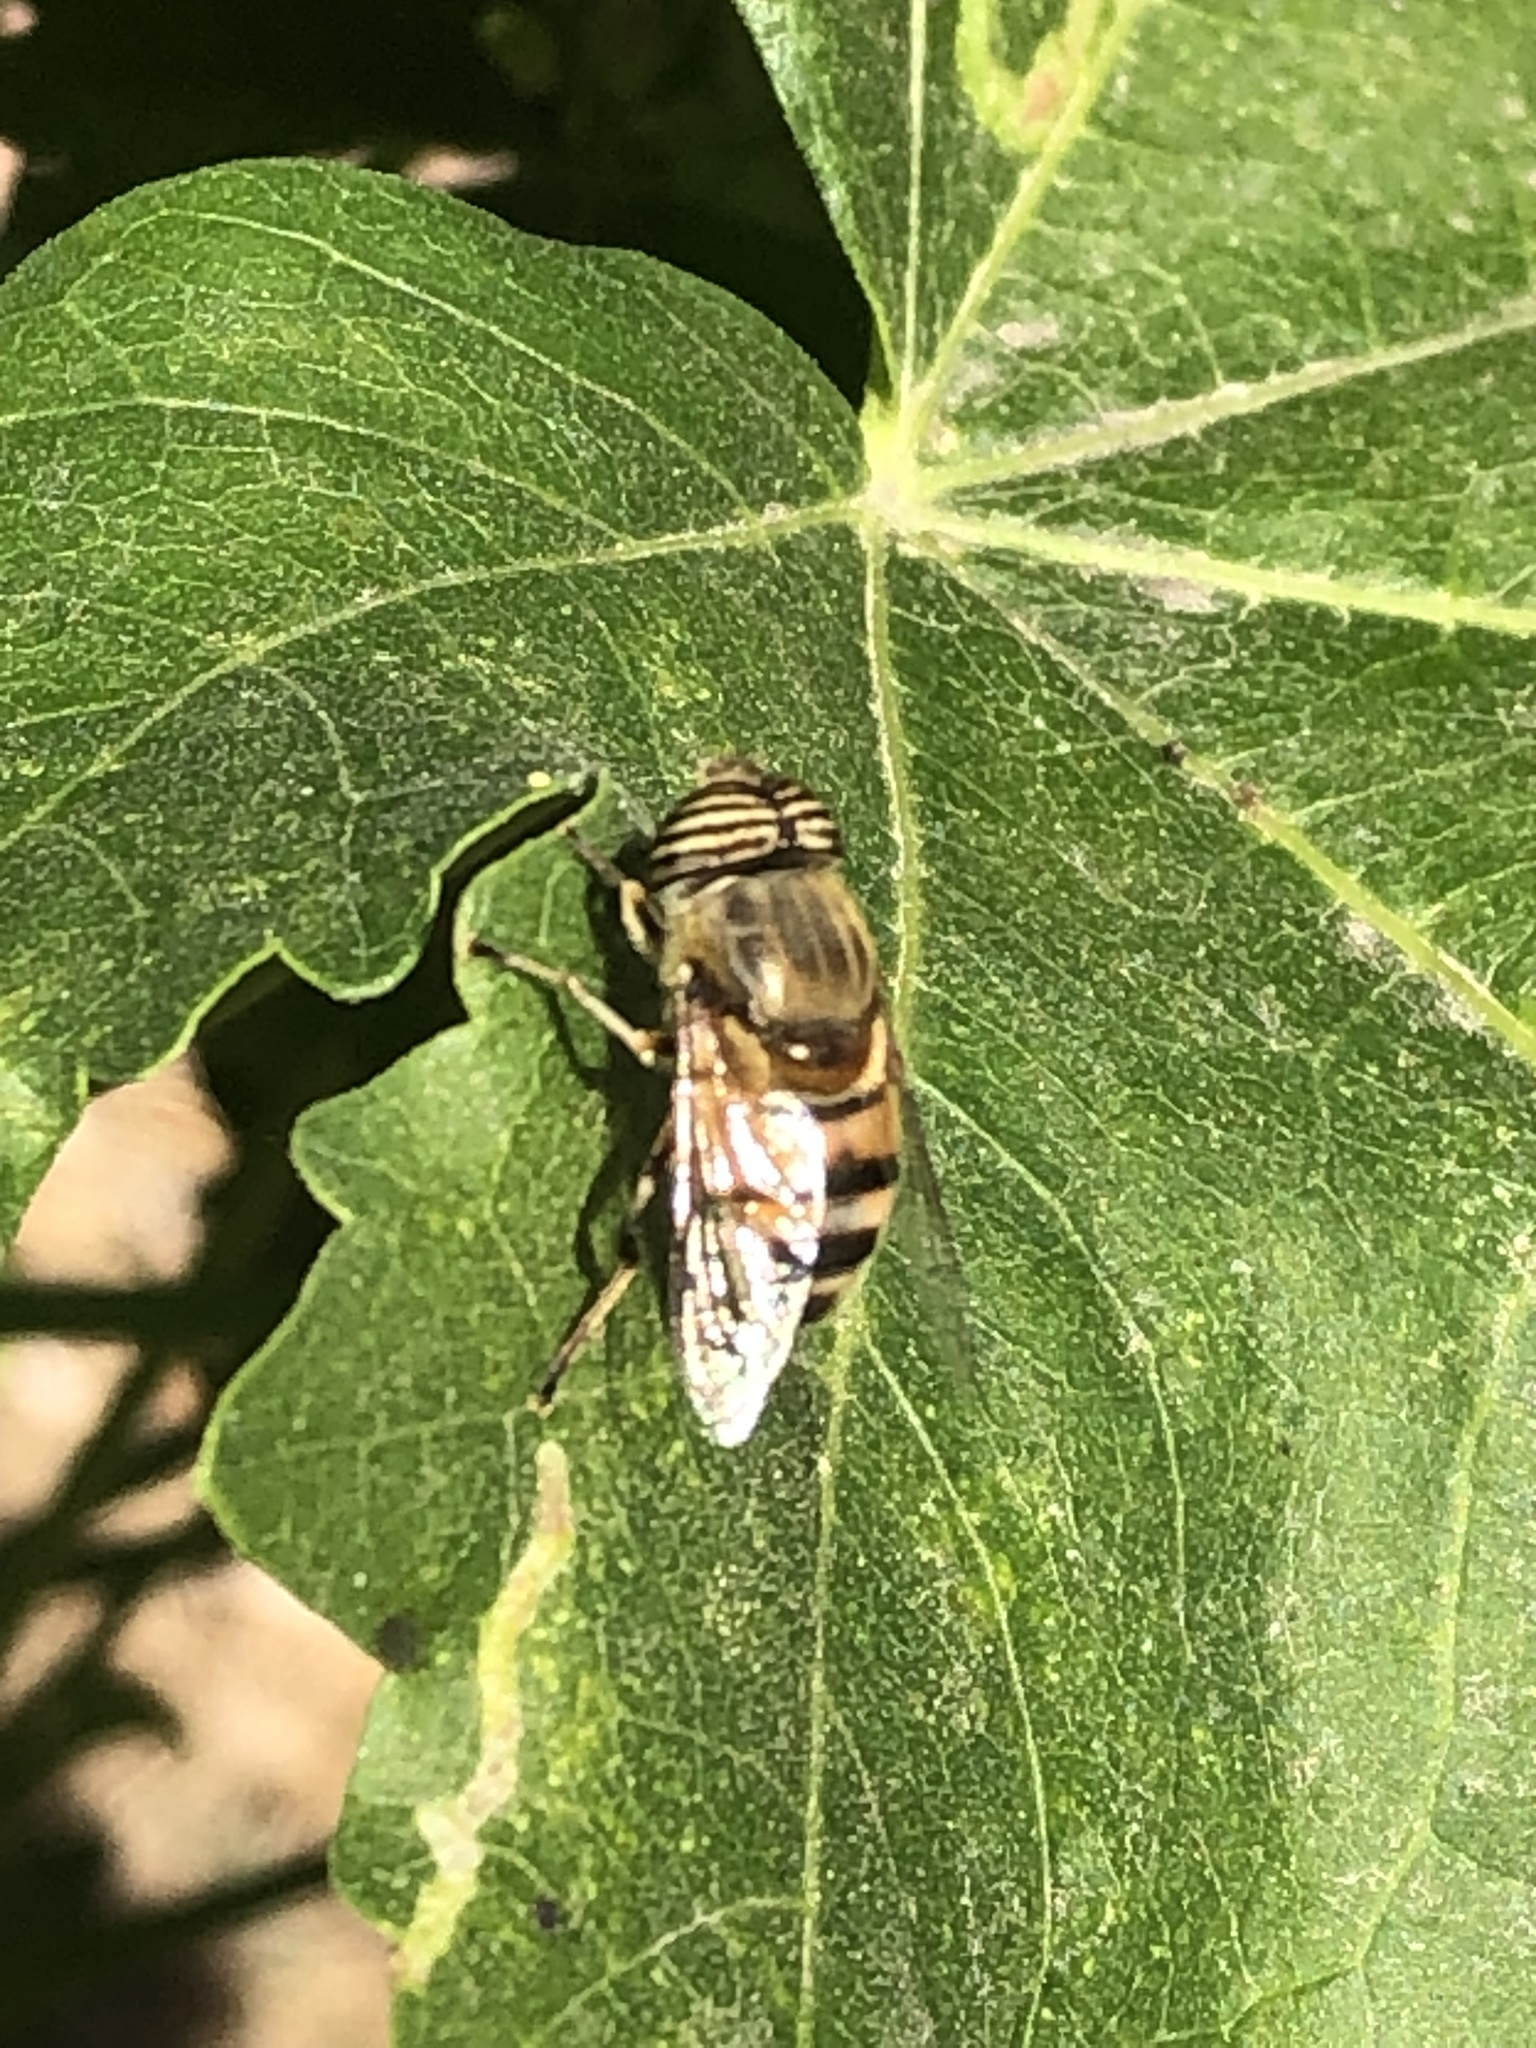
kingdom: Animalia
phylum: Arthropoda
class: Insecta
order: Diptera
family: Syrphidae
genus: Eristalinus
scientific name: Eristalinus taeniops
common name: Syrphid fly
